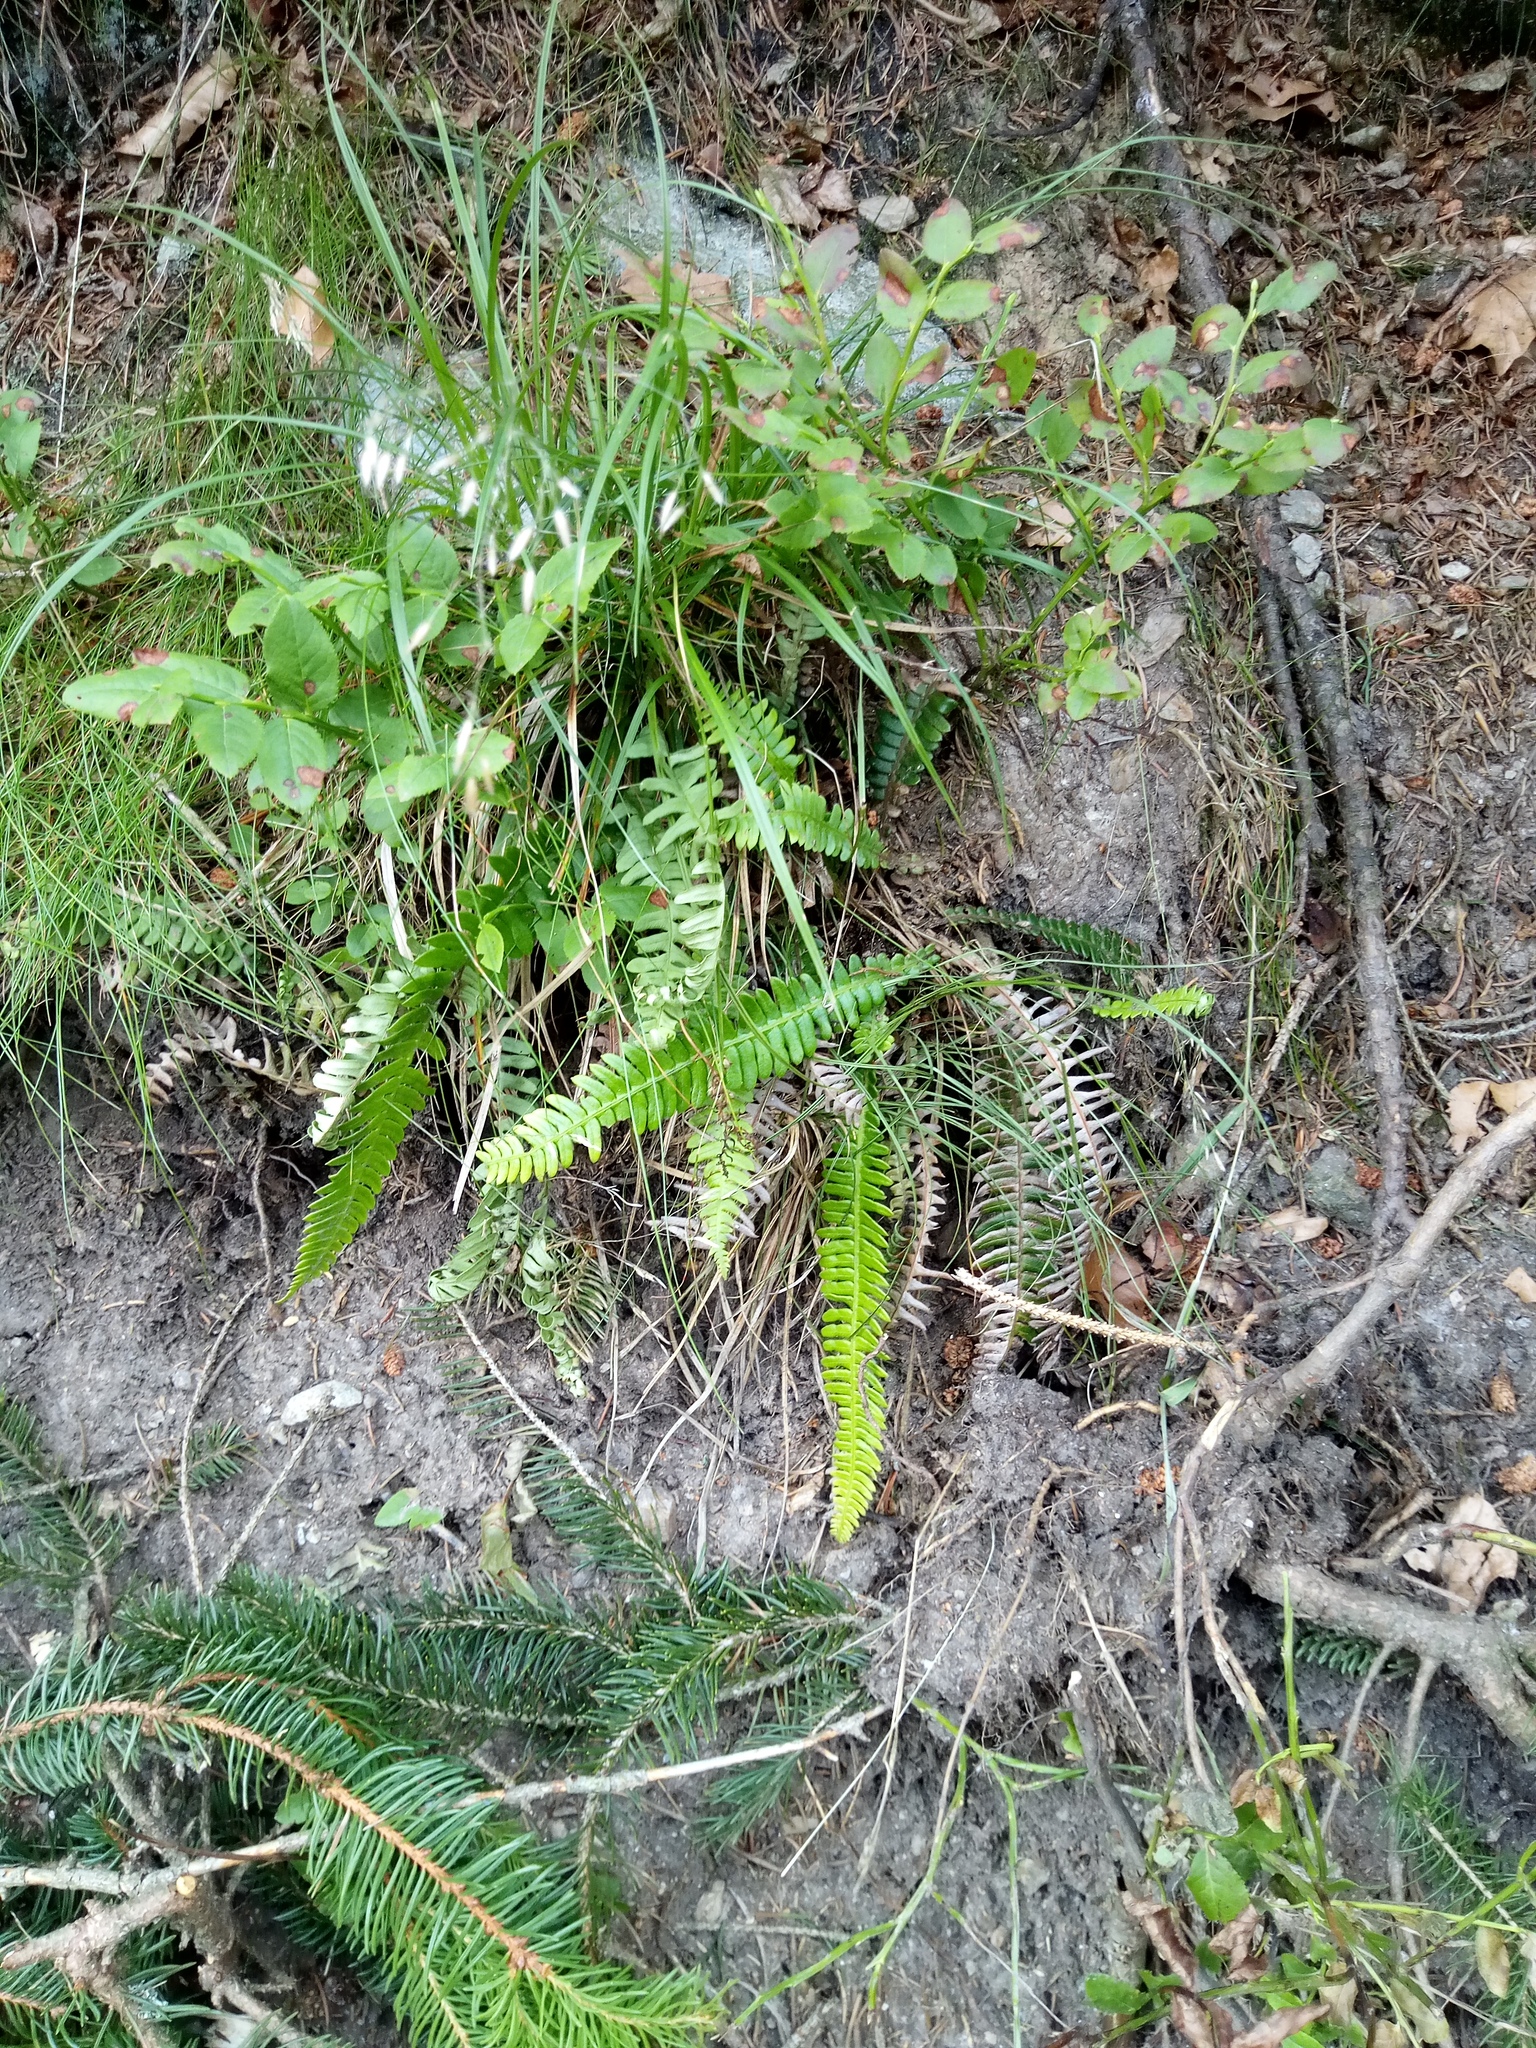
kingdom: Plantae
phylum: Tracheophyta
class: Polypodiopsida
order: Polypodiales
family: Blechnaceae
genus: Struthiopteris
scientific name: Struthiopteris spicant
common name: Deer fern
